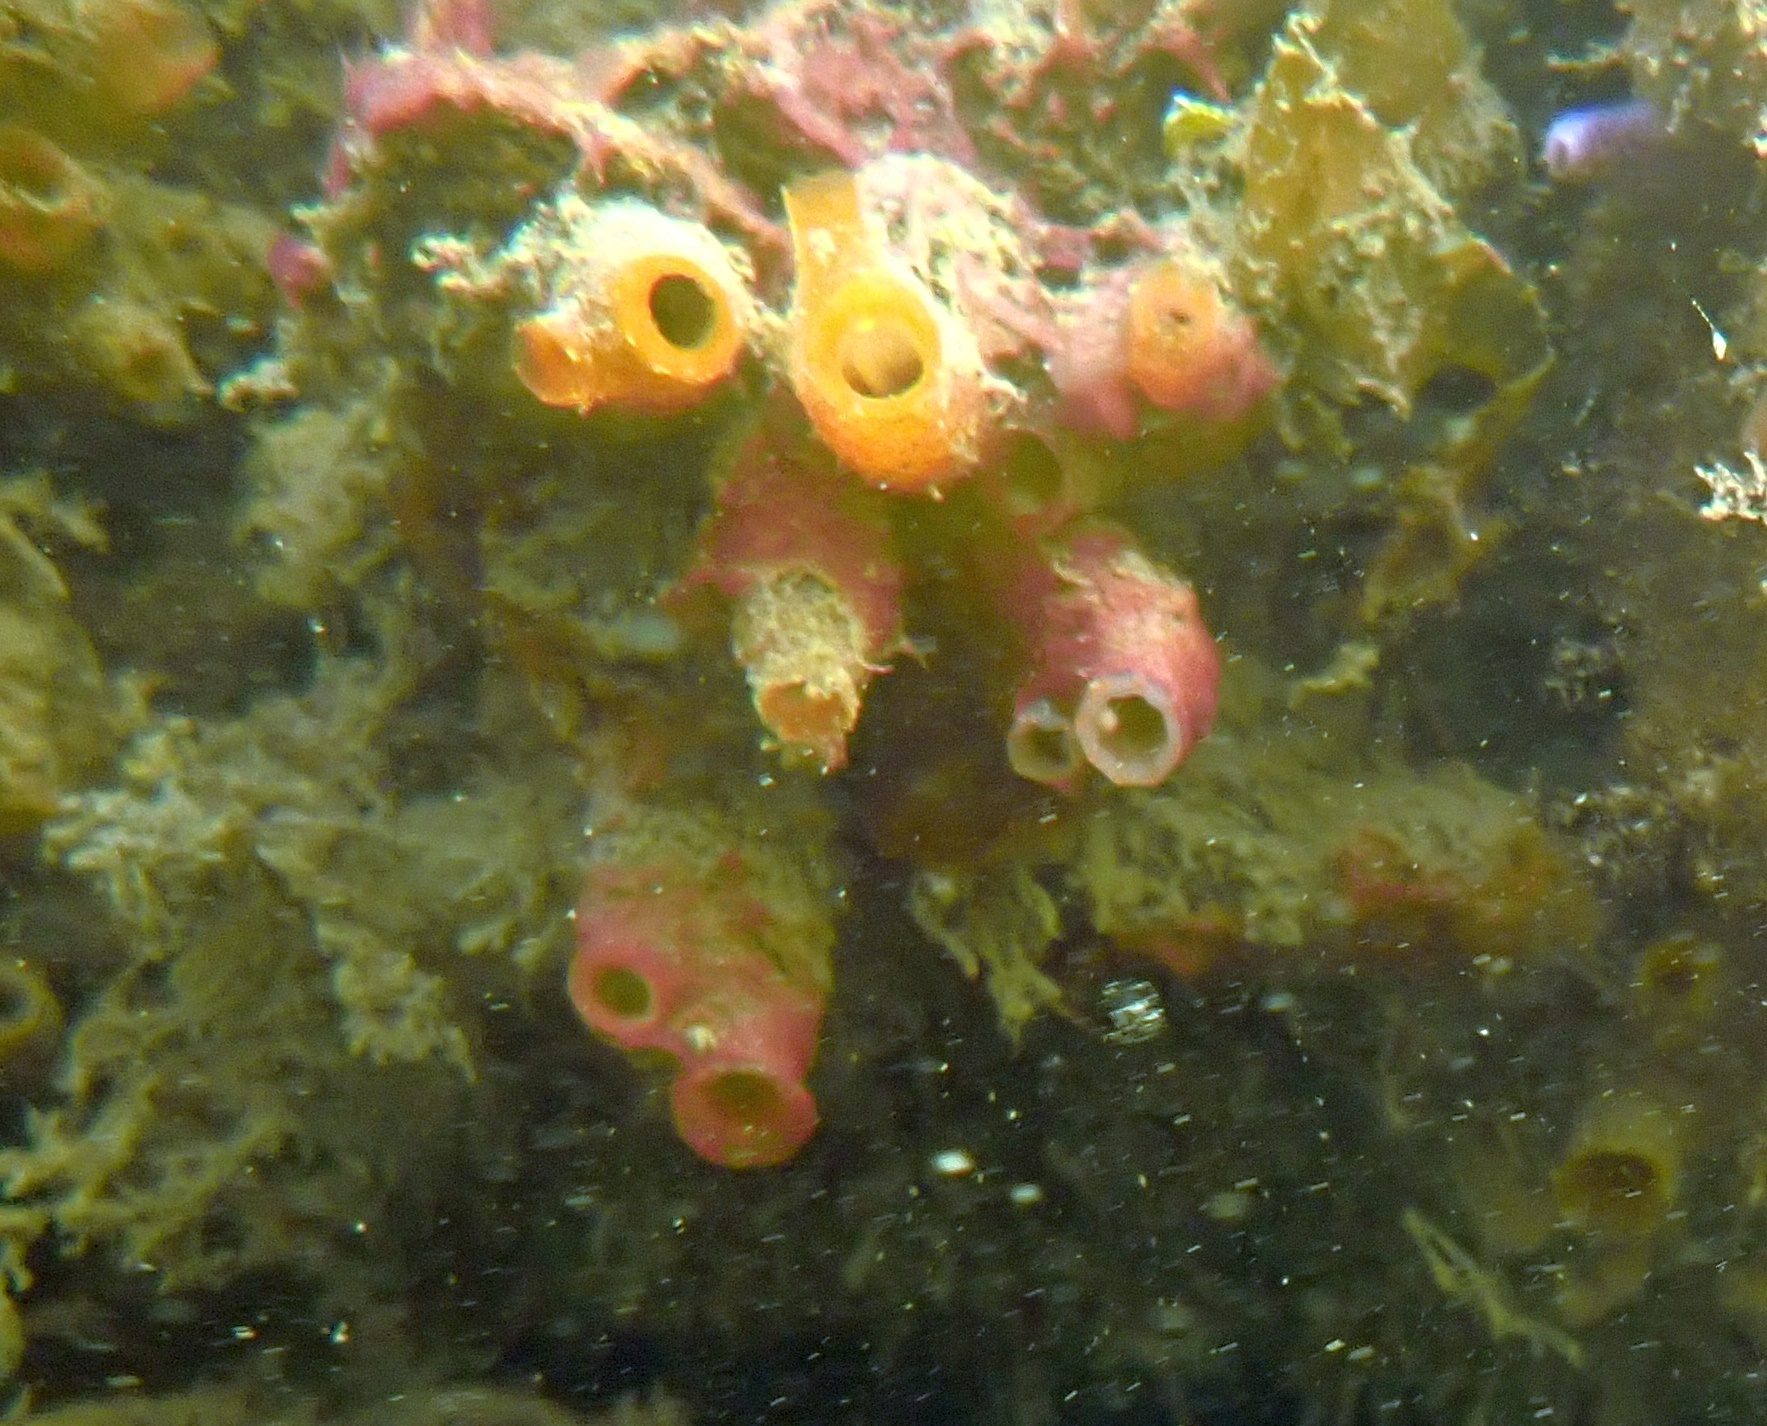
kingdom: Animalia
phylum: Chordata
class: Ascidiacea
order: Phlebobranchia
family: Cionidae
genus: Ciona
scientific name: Ciona intestinalis
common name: Vase tunicate
